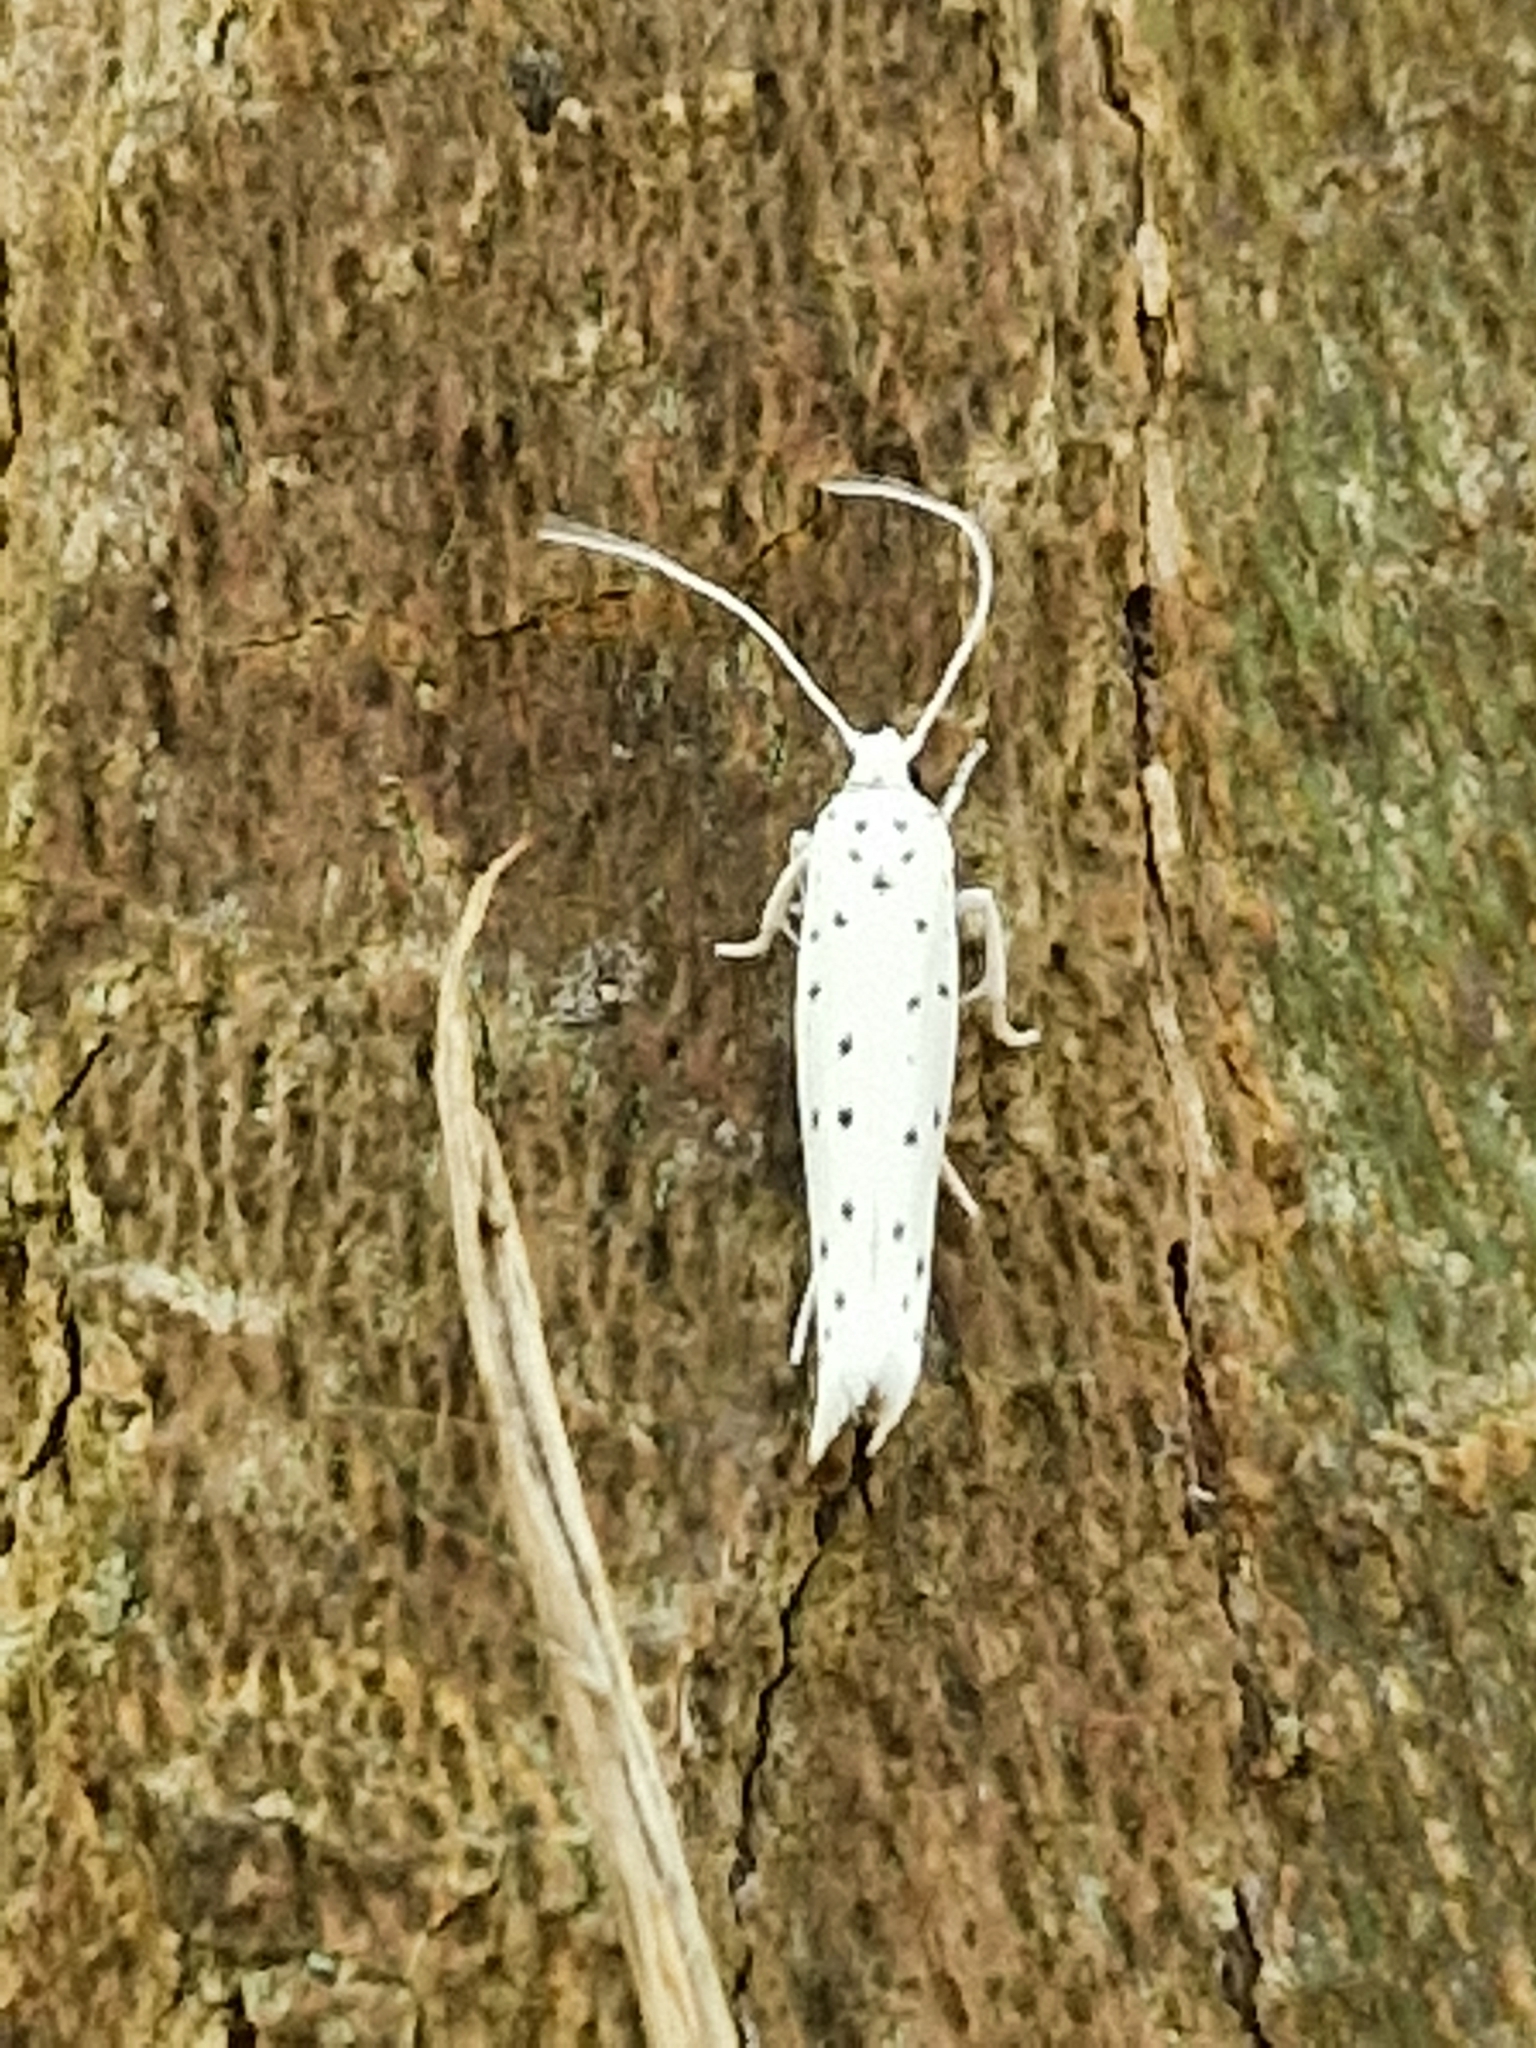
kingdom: Animalia
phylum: Arthropoda
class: Insecta
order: Lepidoptera
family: Yponomeutidae
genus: Yponomeuta
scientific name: Yponomeuta
